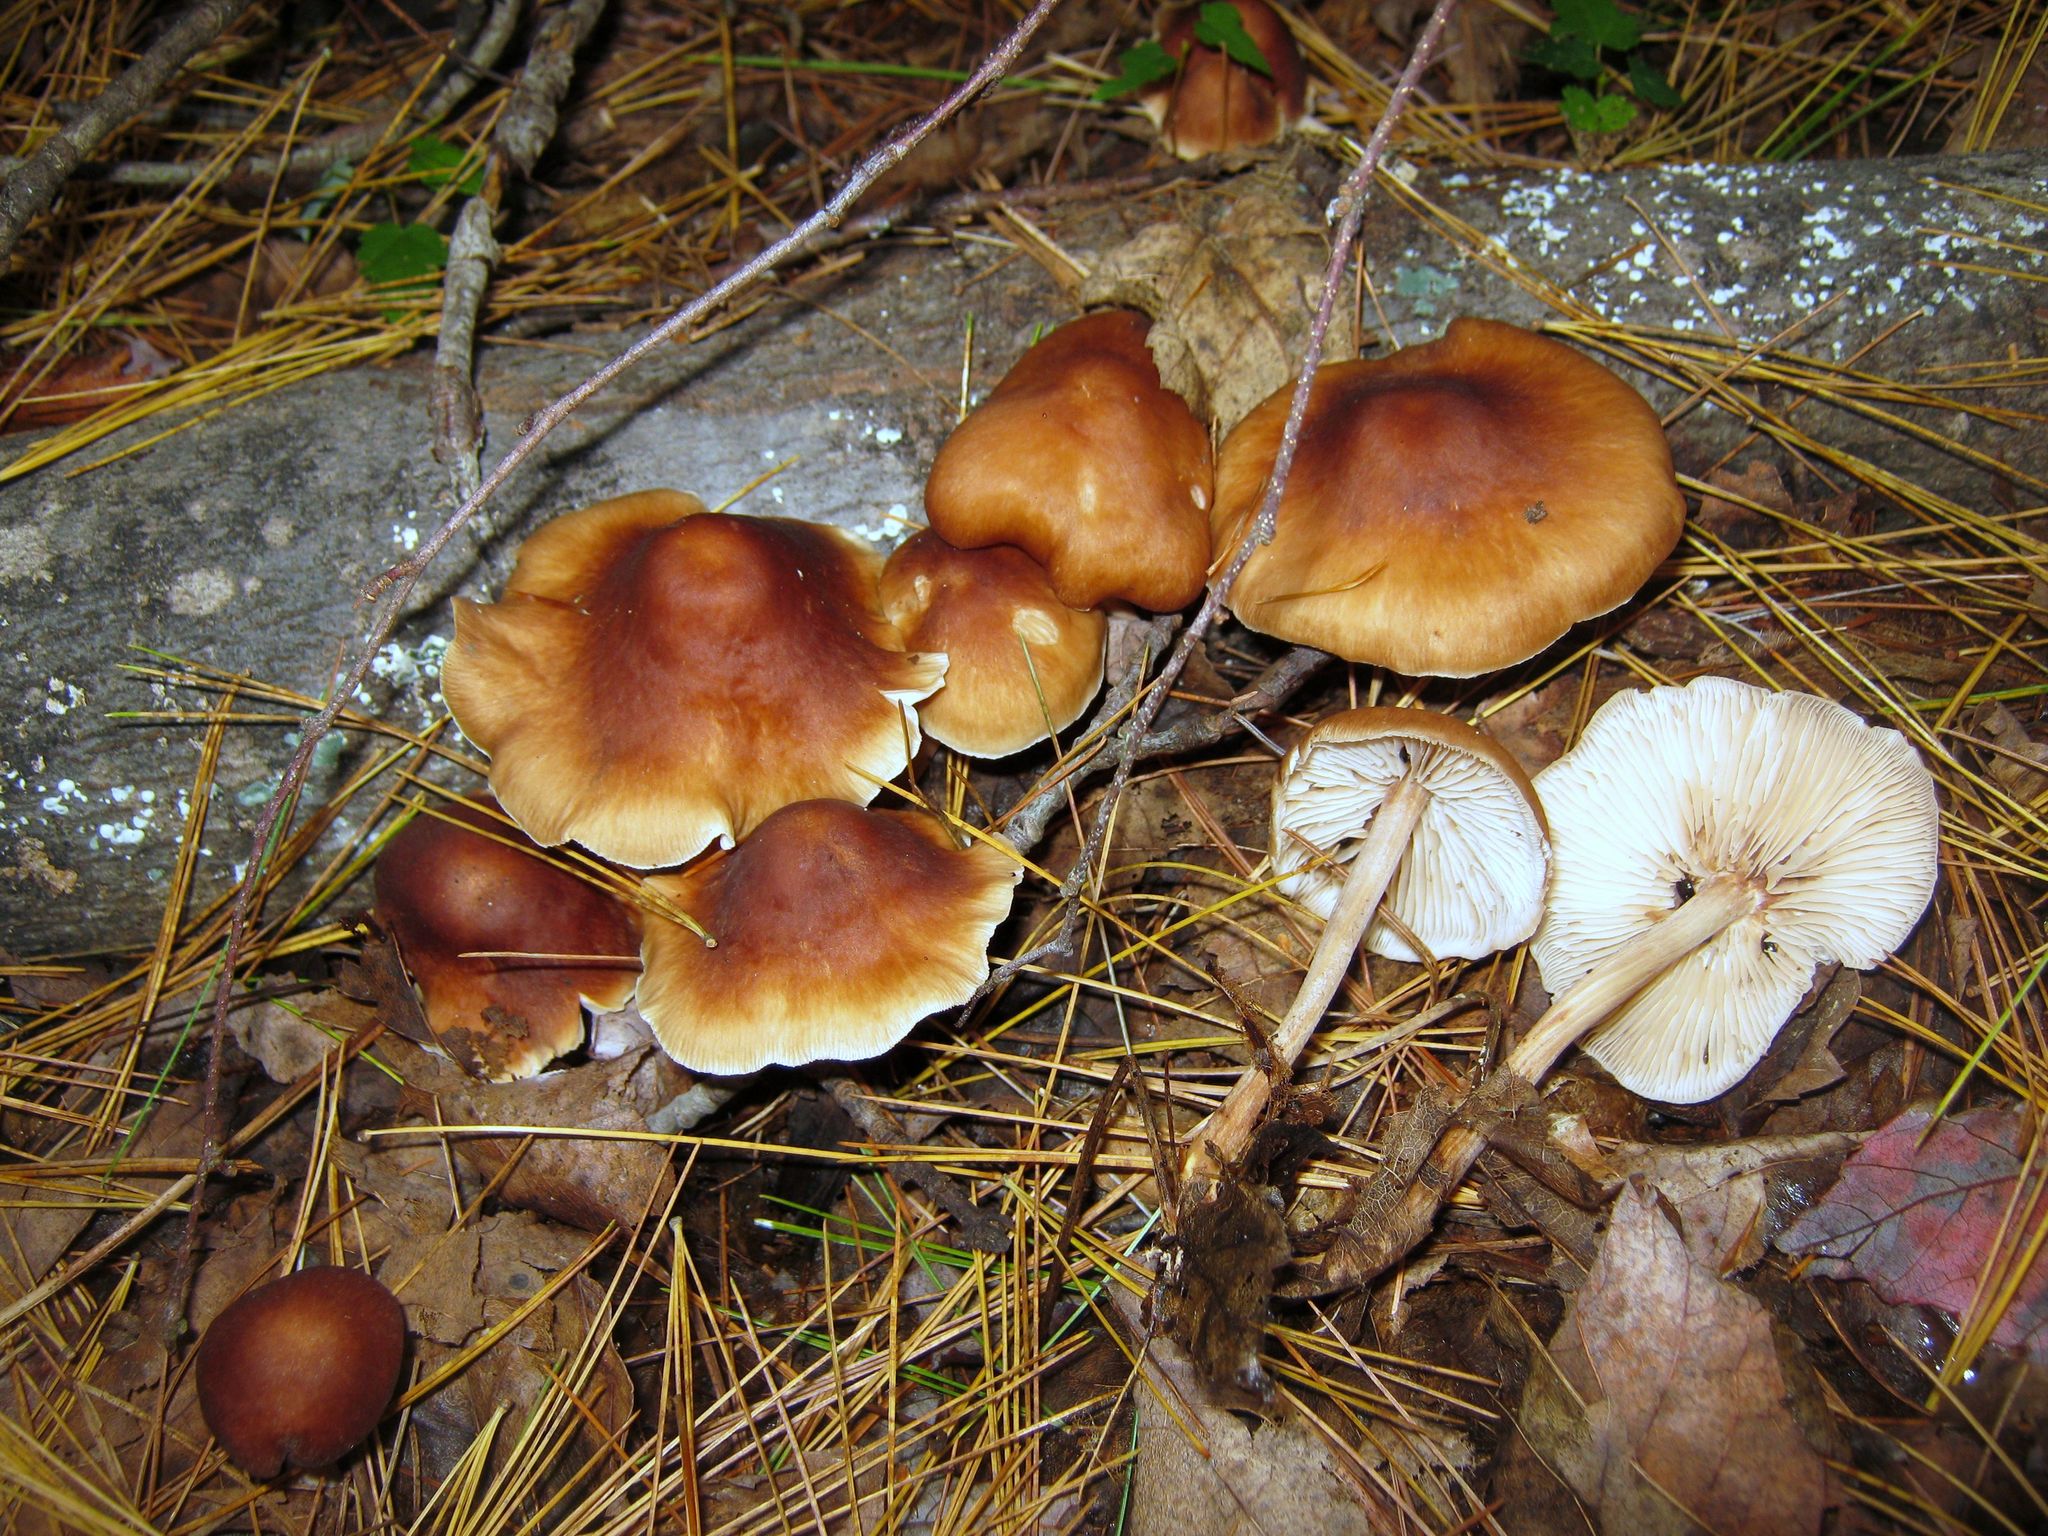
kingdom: Fungi
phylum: Basidiomycota
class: Agaricomycetes
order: Agaricales
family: Omphalotaceae
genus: Rhodocollybia
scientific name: Rhodocollybia butyracea
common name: Butter cap
